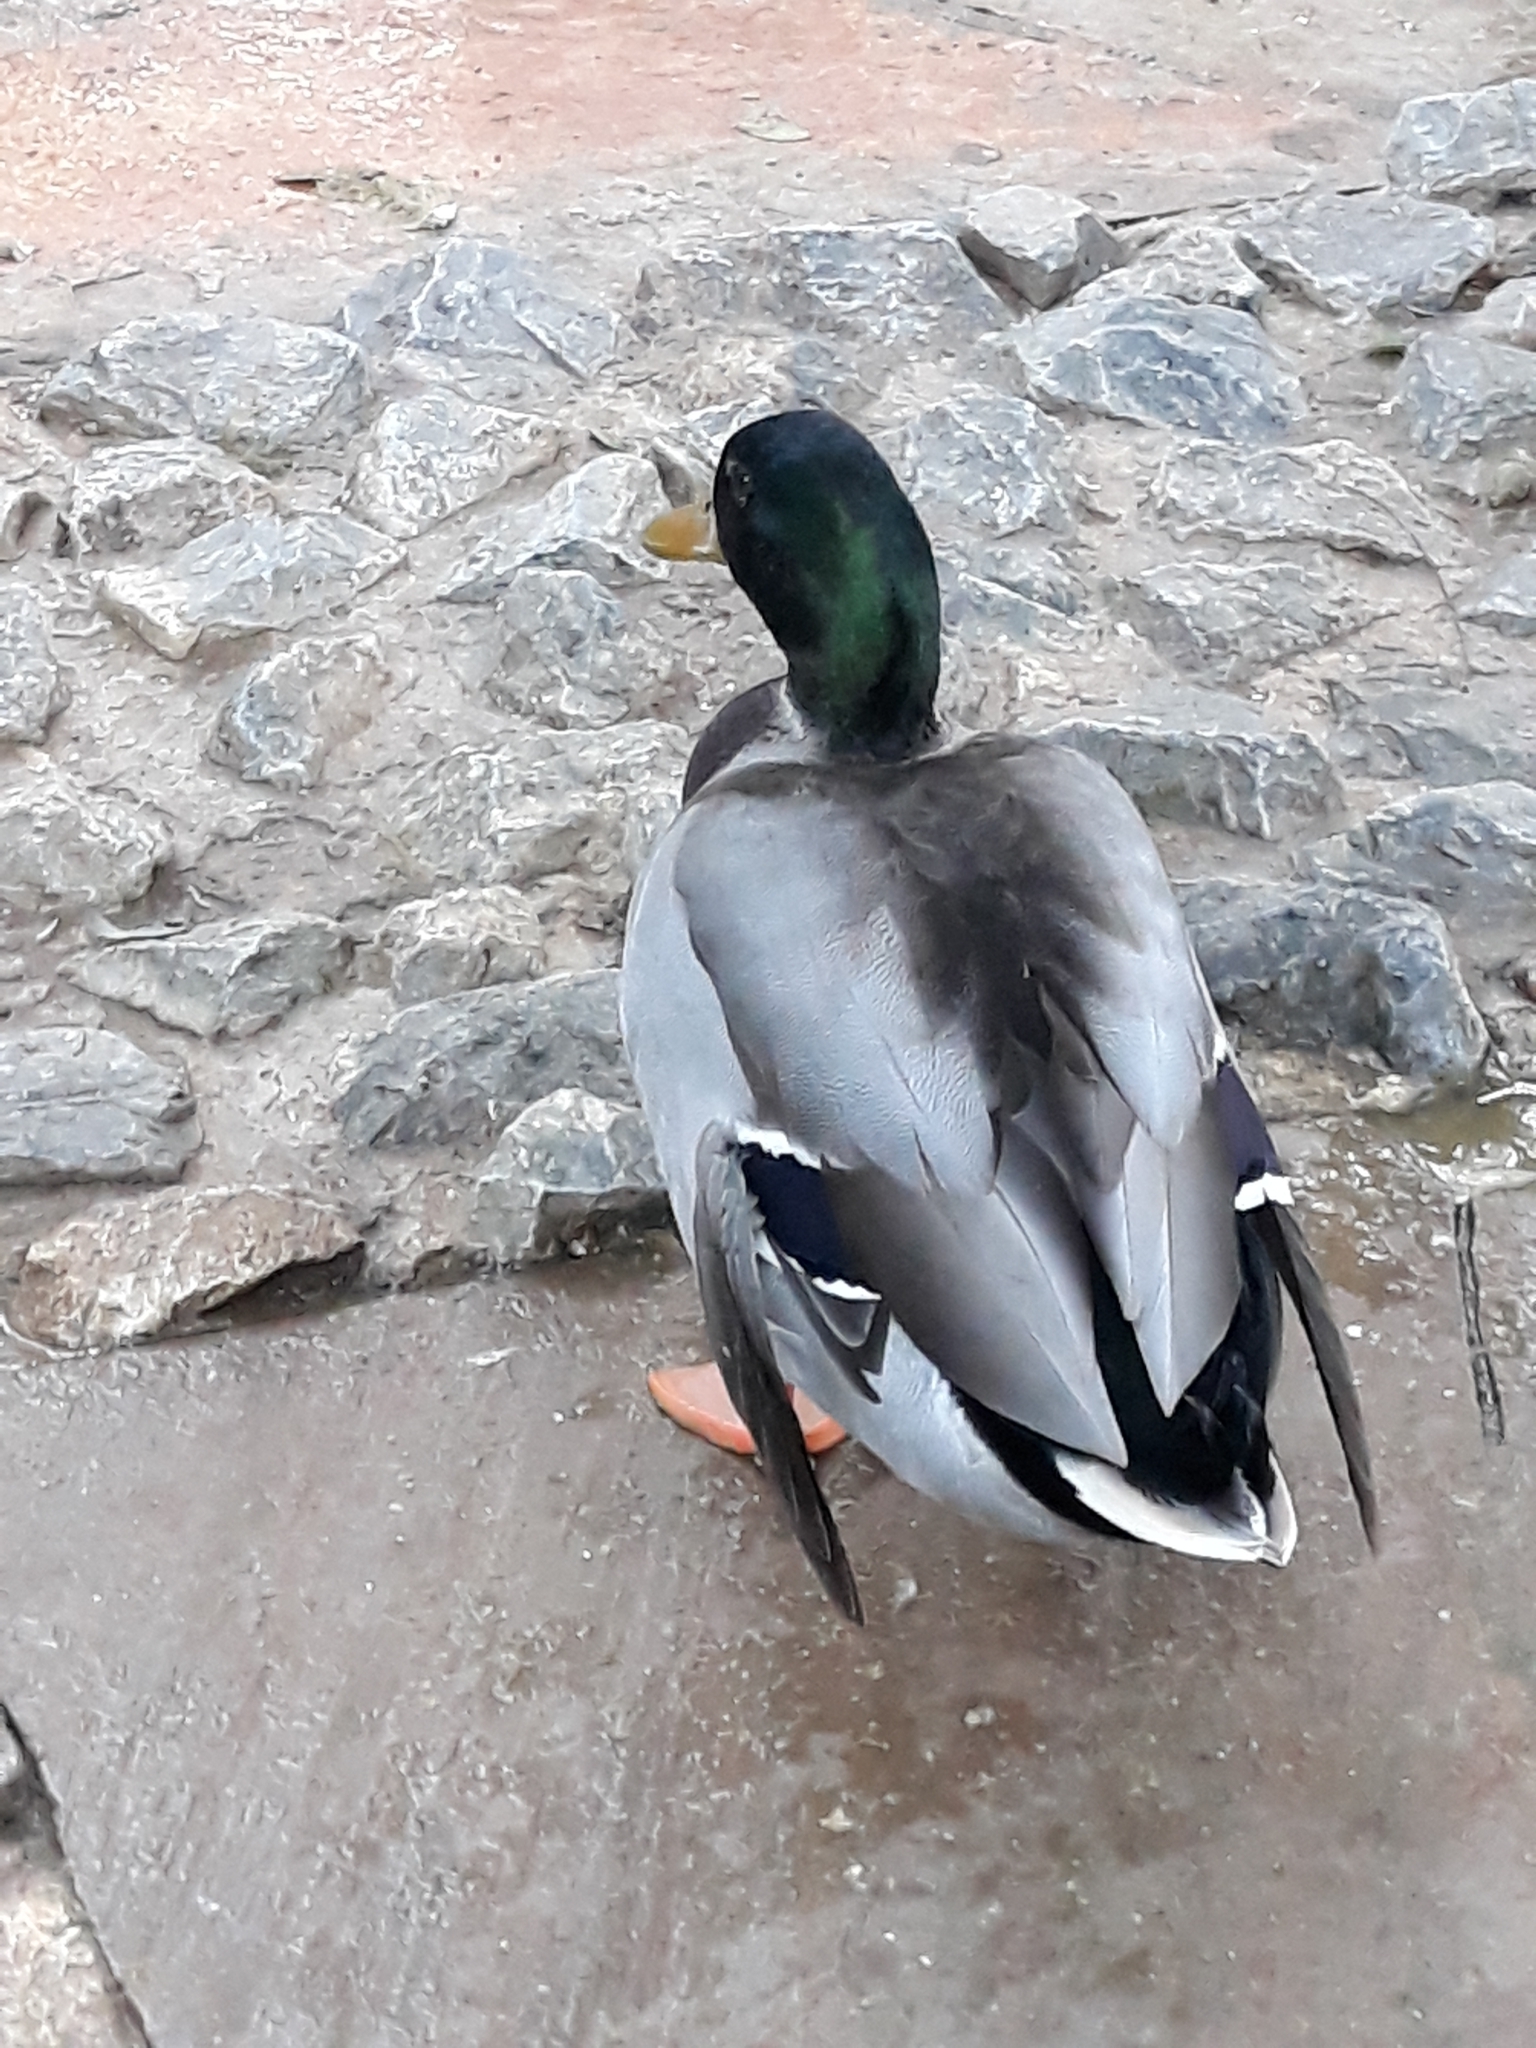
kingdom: Animalia
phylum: Chordata
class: Aves
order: Anseriformes
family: Anatidae
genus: Anas
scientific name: Anas platyrhynchos
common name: Mallard
